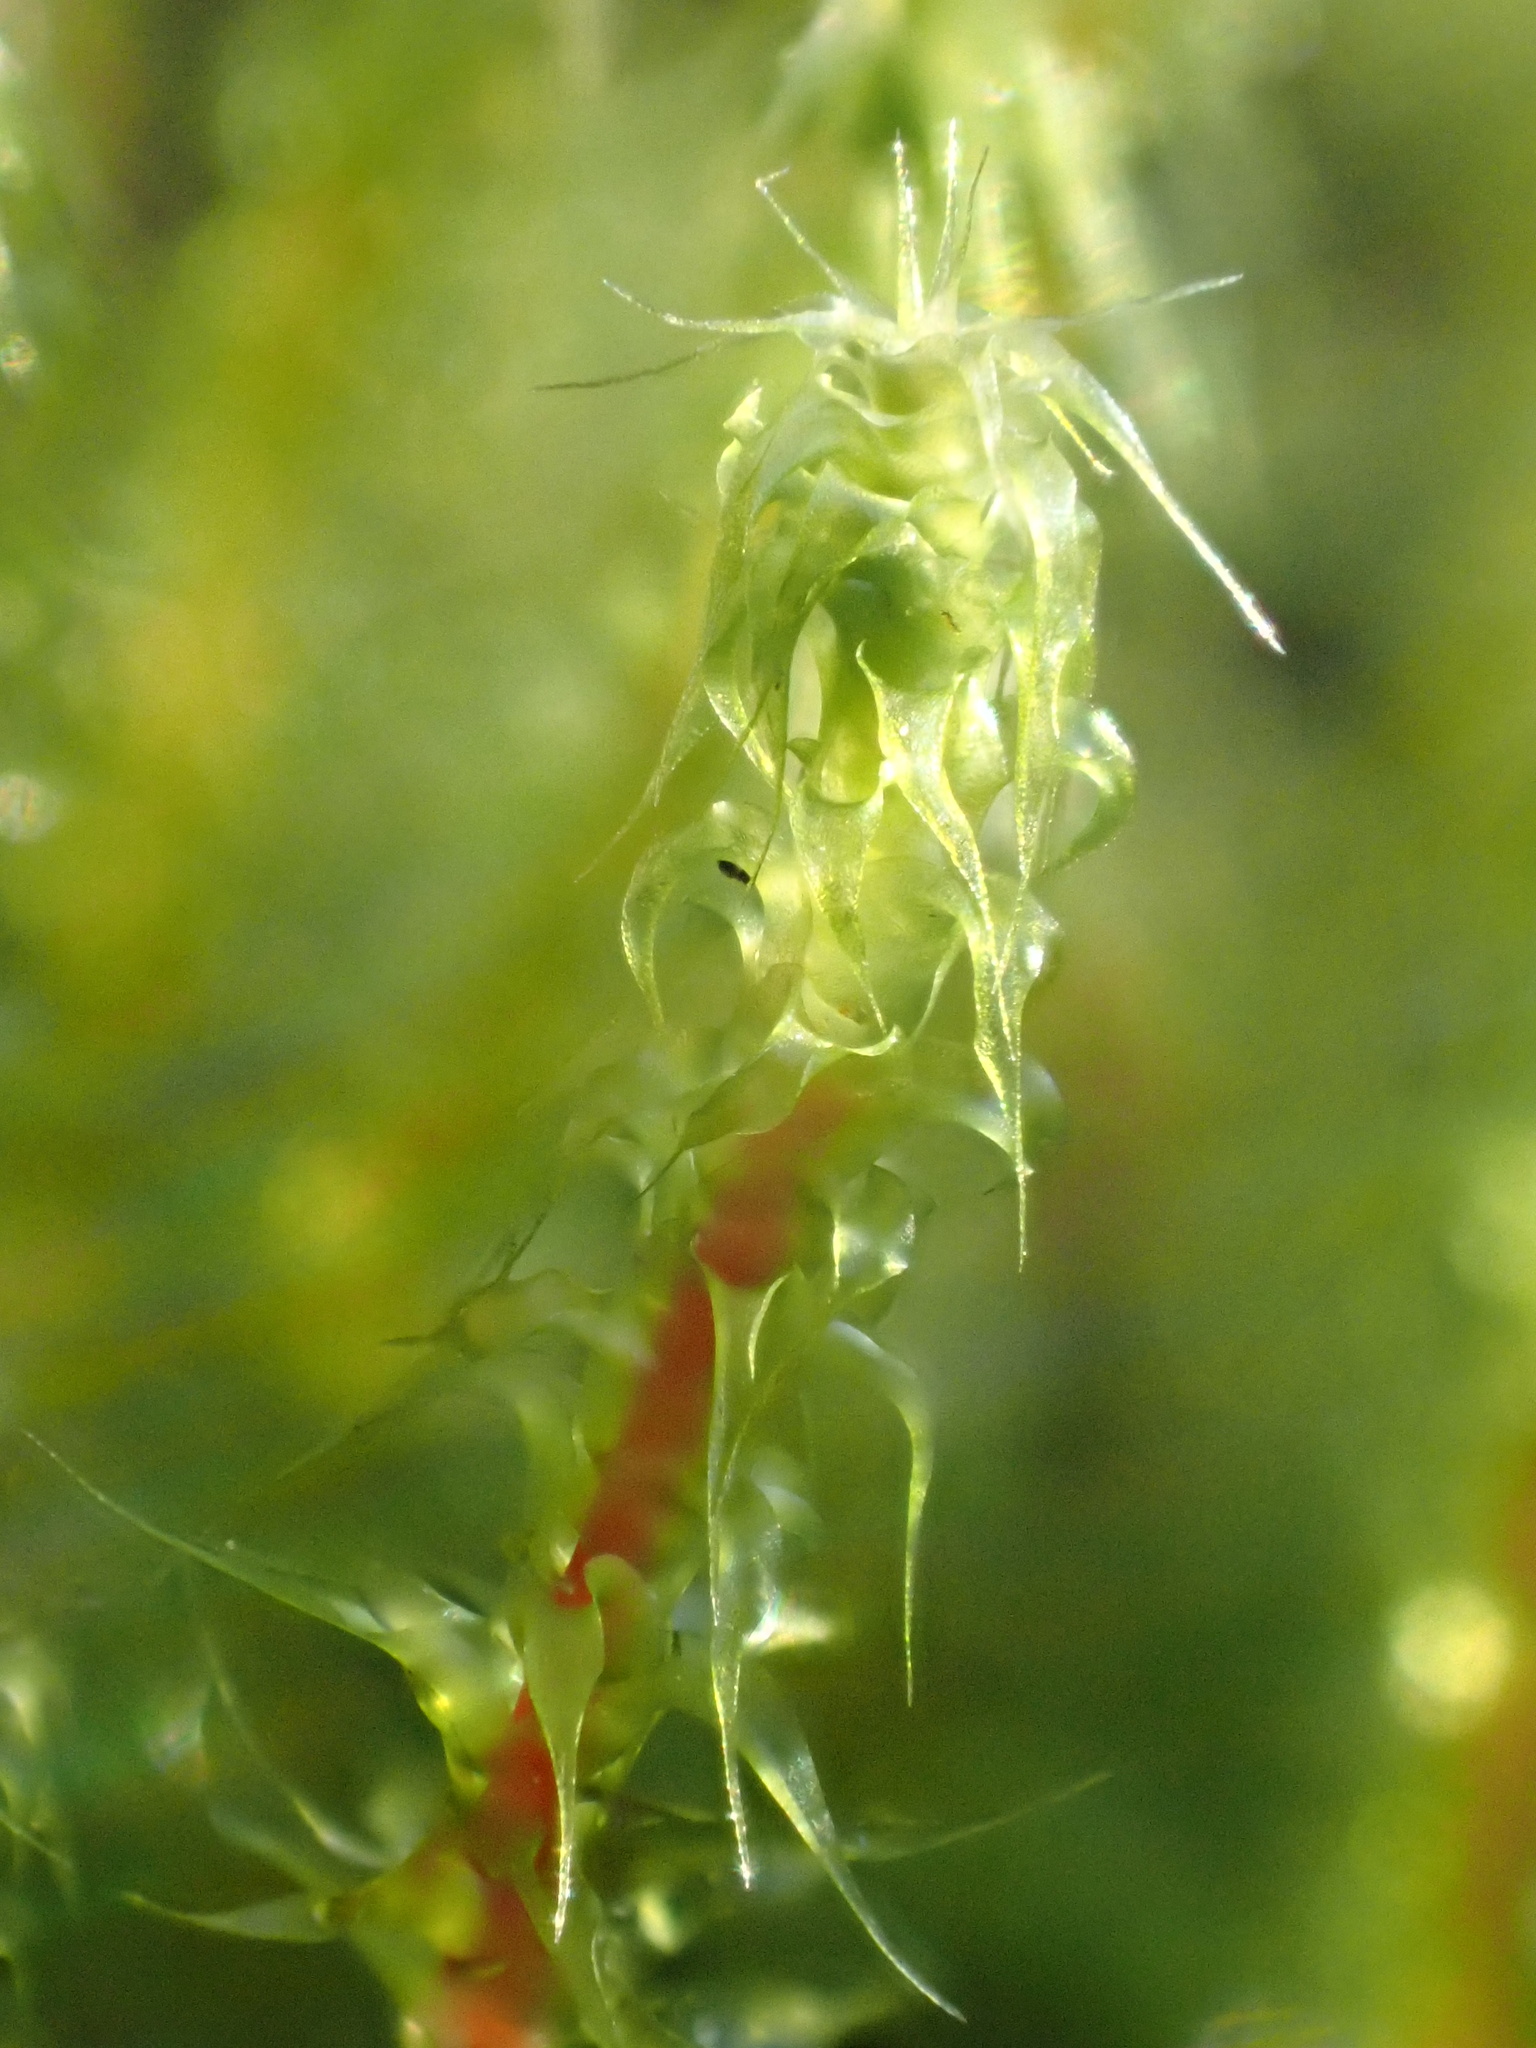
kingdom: Plantae
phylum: Bryophyta
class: Bryopsida
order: Hypnales
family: Hylocomiaceae
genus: Rhytidiadelphus
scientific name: Rhytidiadelphus squarrosus
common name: Springy turf-moss
